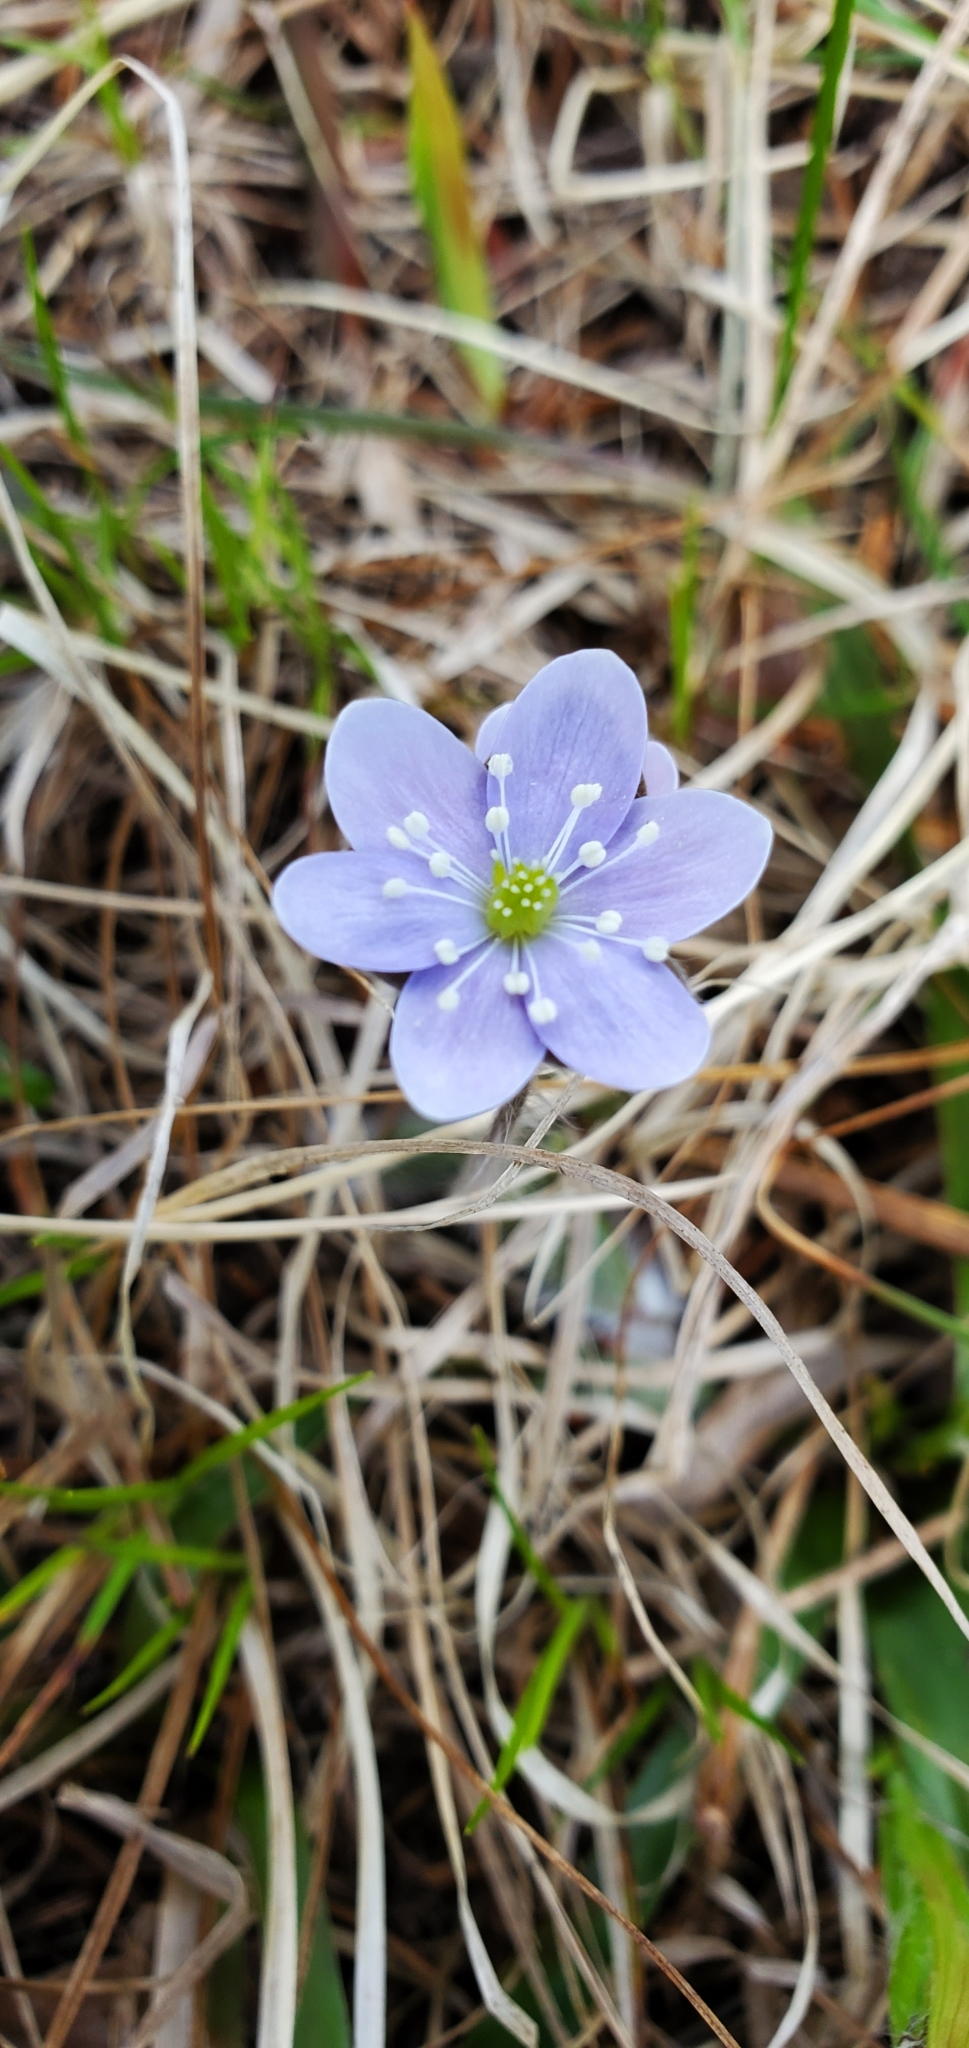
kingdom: Plantae
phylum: Tracheophyta
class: Magnoliopsida
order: Ranunculales
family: Ranunculaceae
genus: Hepatica
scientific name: Hepatica americana
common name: American hepatica
